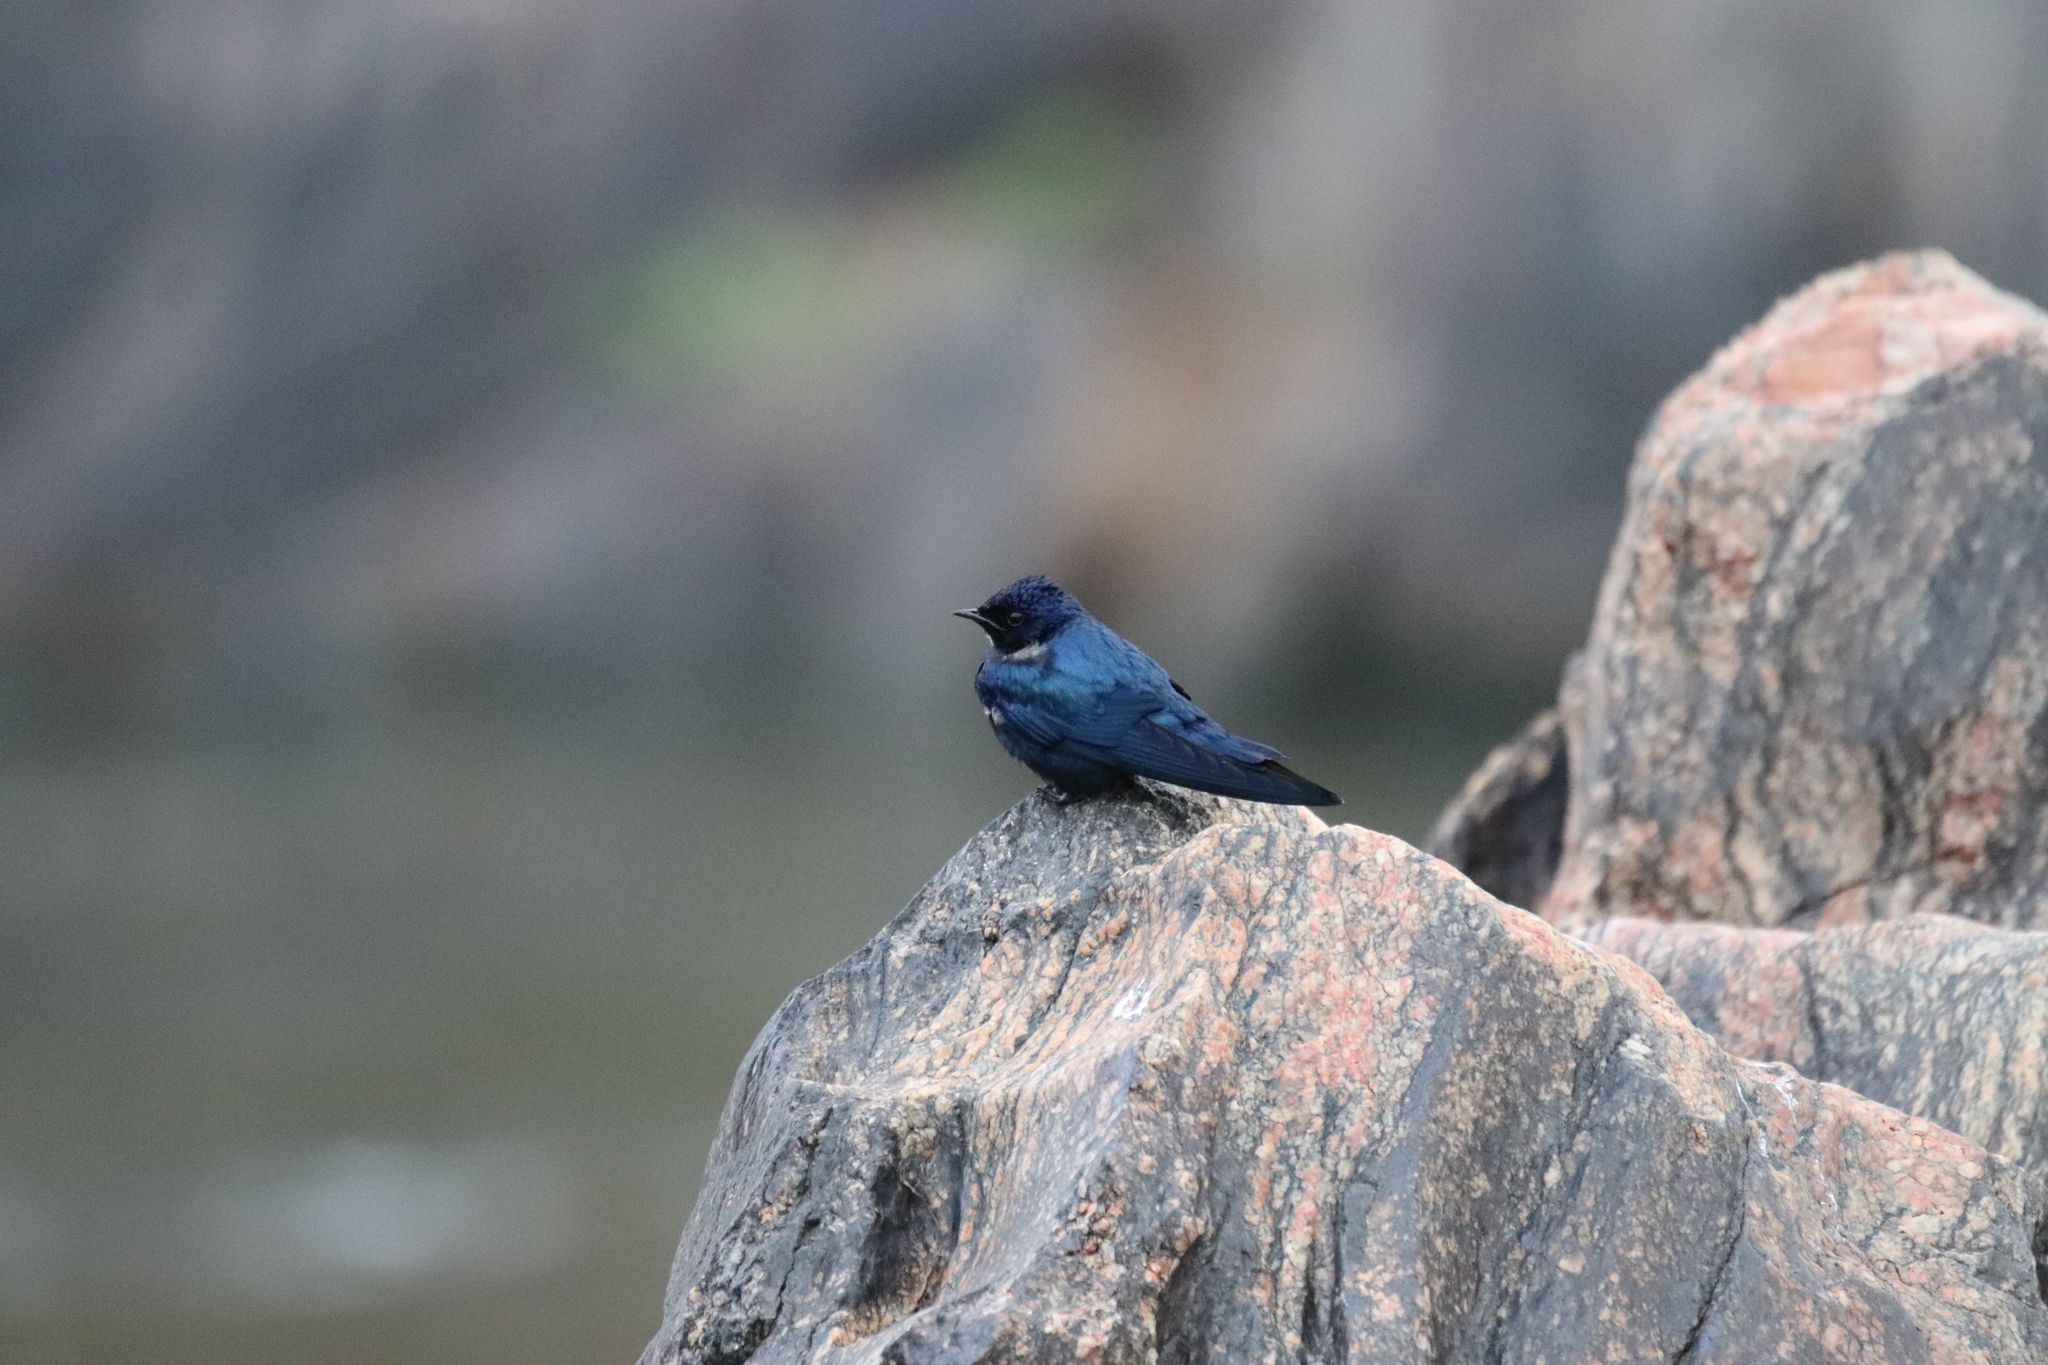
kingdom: Animalia
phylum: Chordata
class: Aves
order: Passeriformes
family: Hirundinidae
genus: Hirundo
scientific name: Hirundo nigrita
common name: White-bibbed swallow
